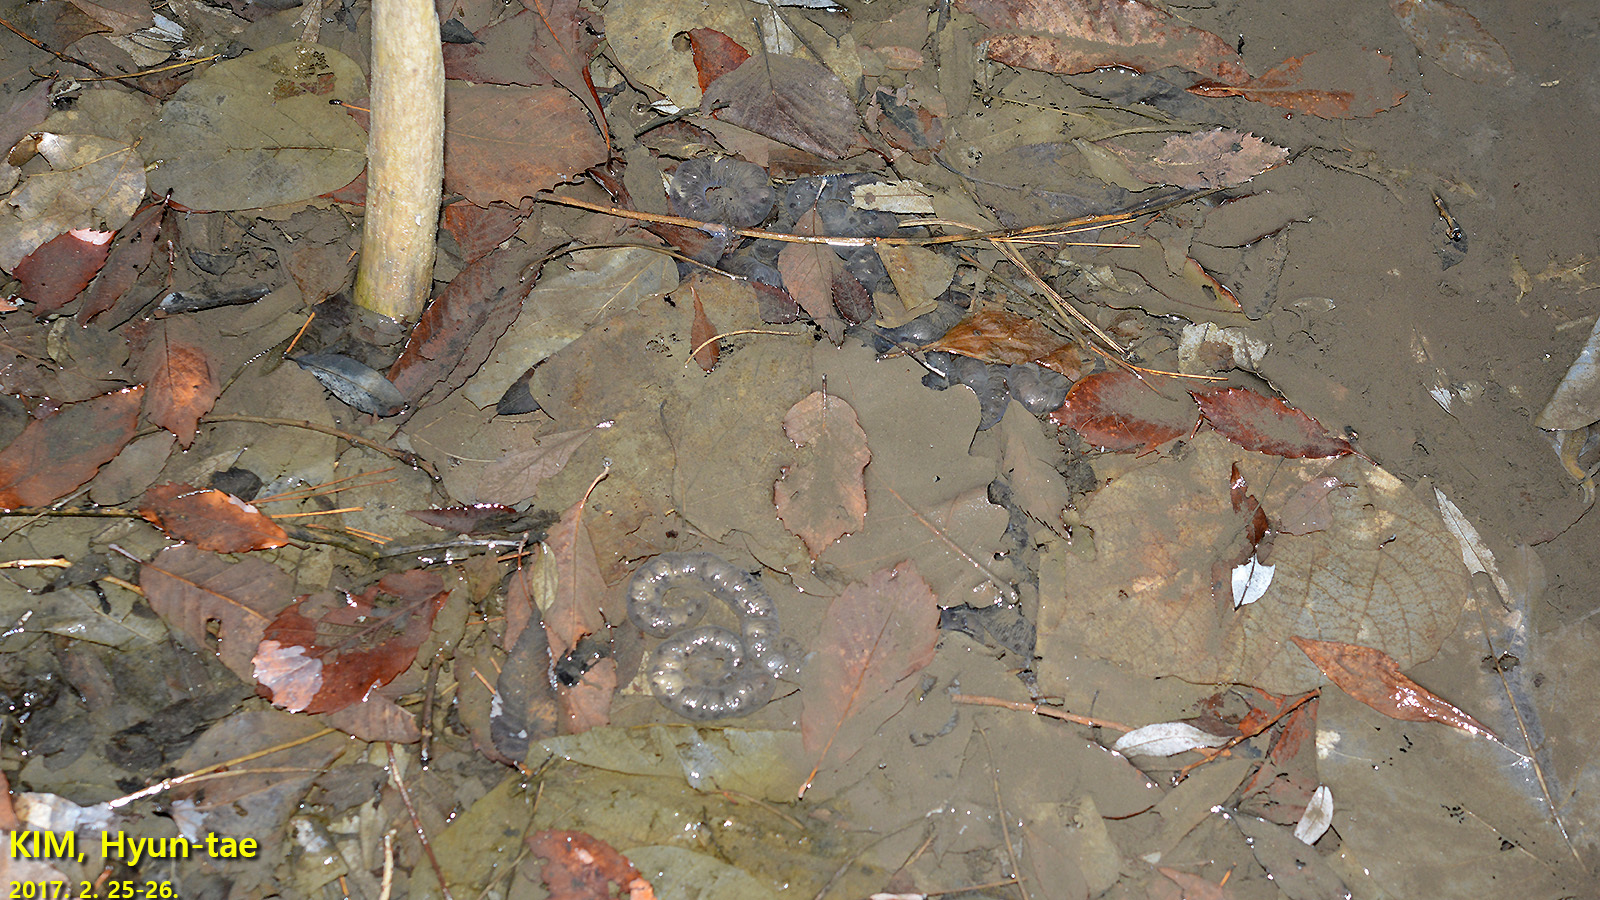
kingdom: Animalia
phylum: Chordata
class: Amphibia
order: Caudata
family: Hynobiidae
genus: Hynobius
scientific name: Hynobius leechii
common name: Gensan salamander
